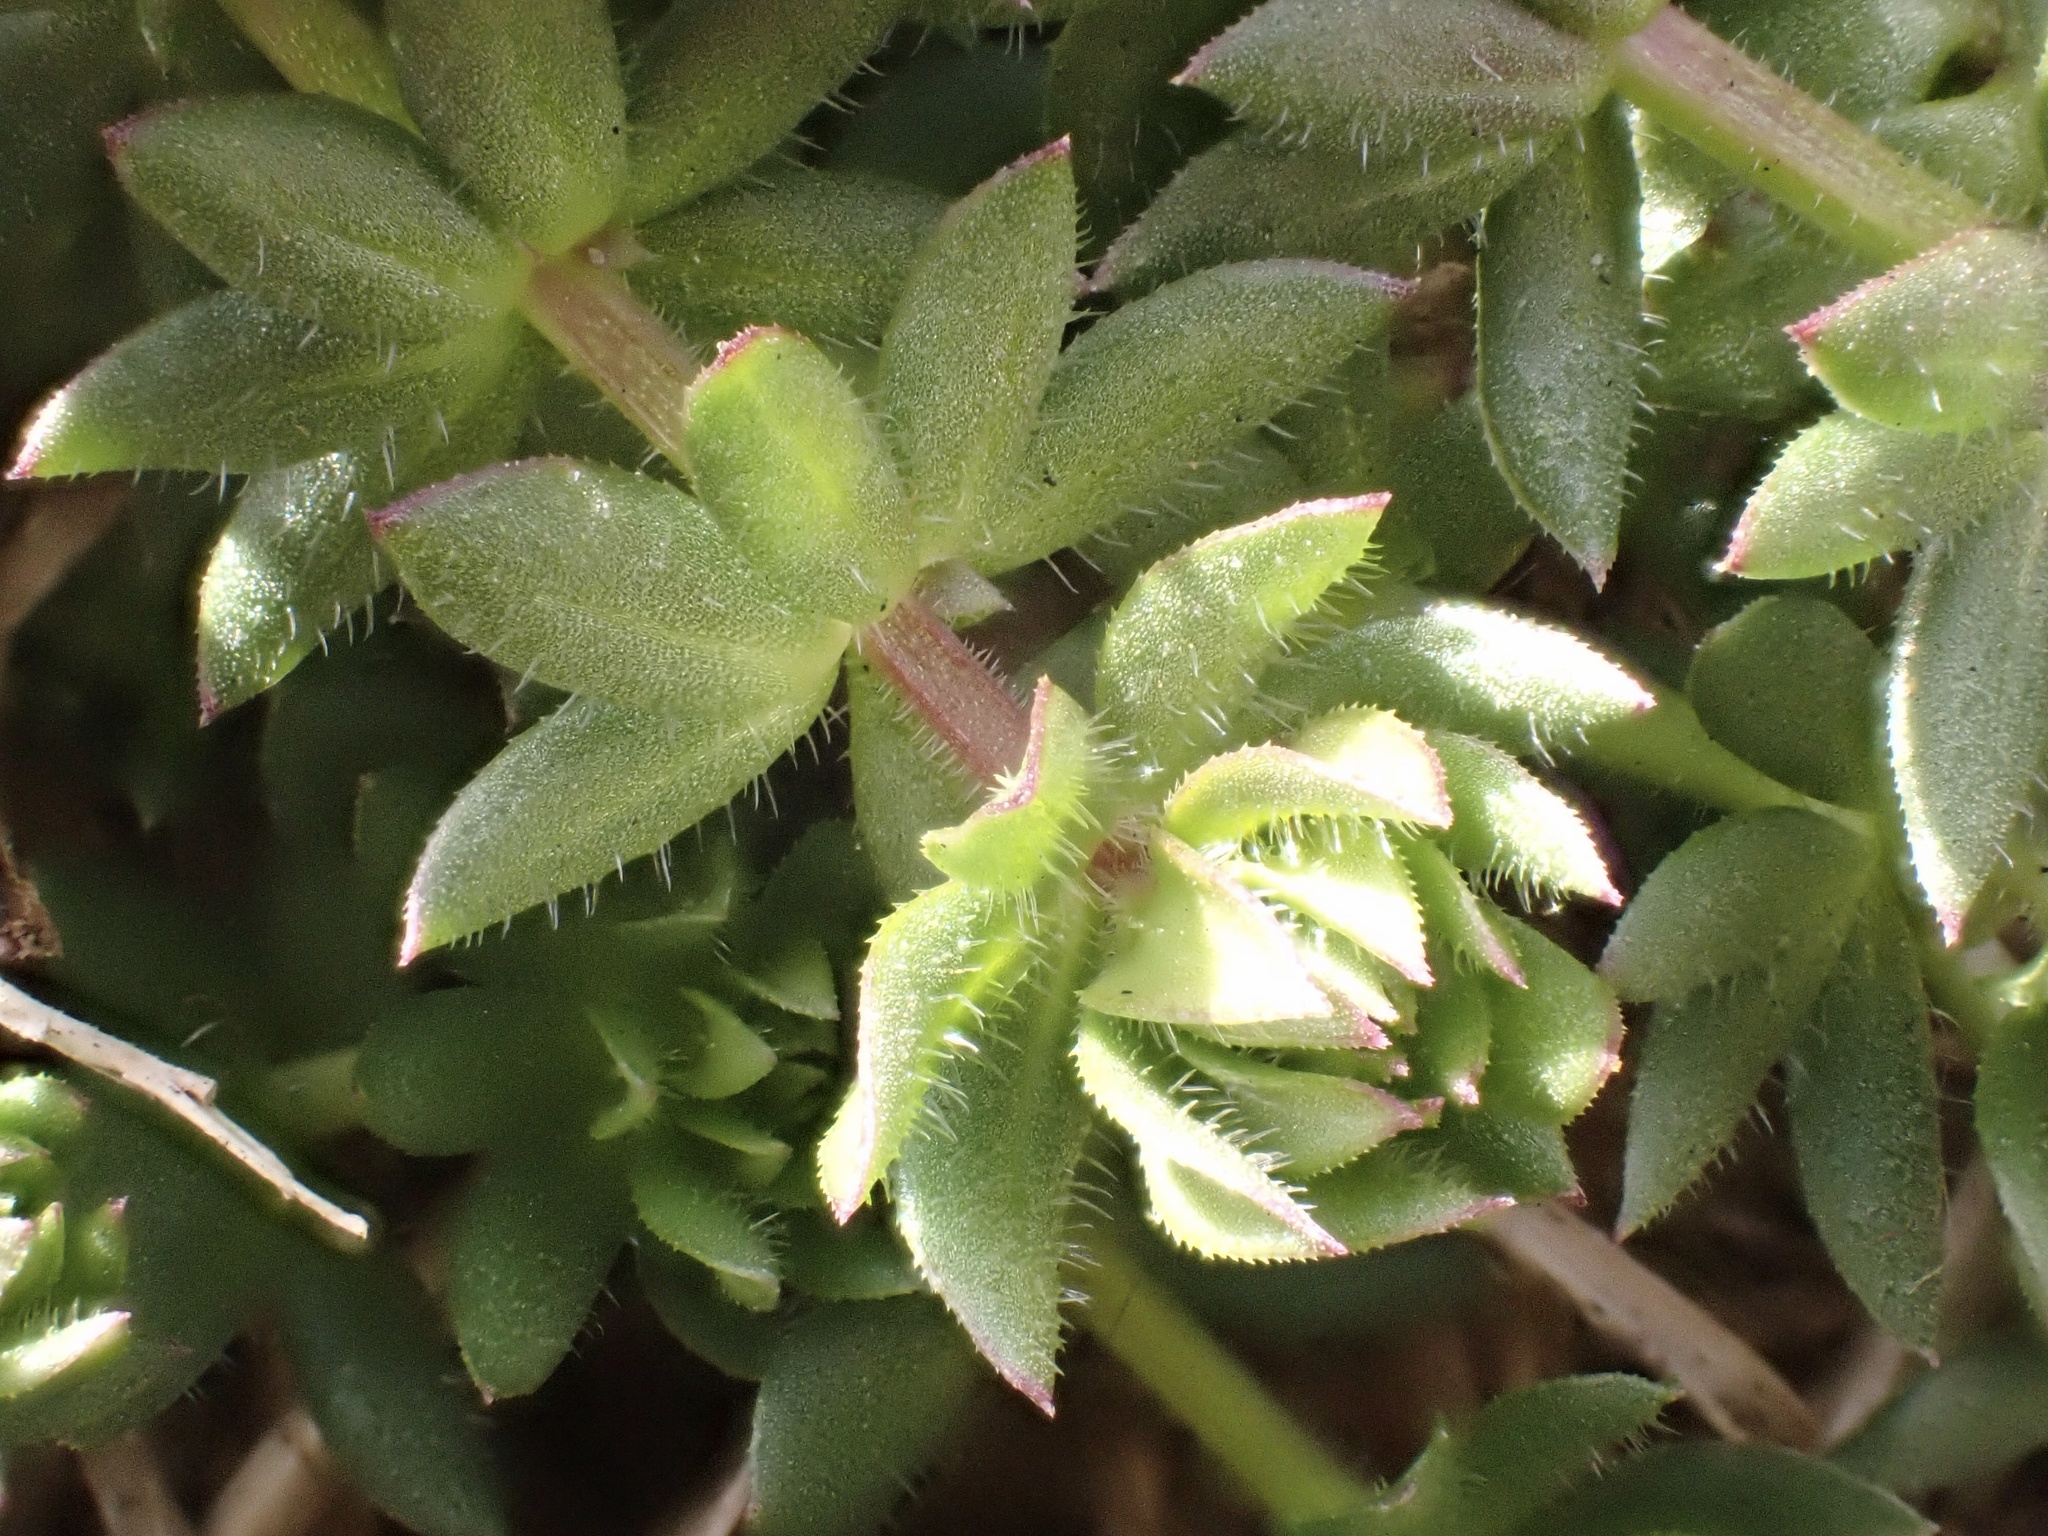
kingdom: Plantae
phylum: Tracheophyta
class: Magnoliopsida
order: Gentianales
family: Rubiaceae
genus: Sherardia
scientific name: Sherardia arvensis
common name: Field madder
